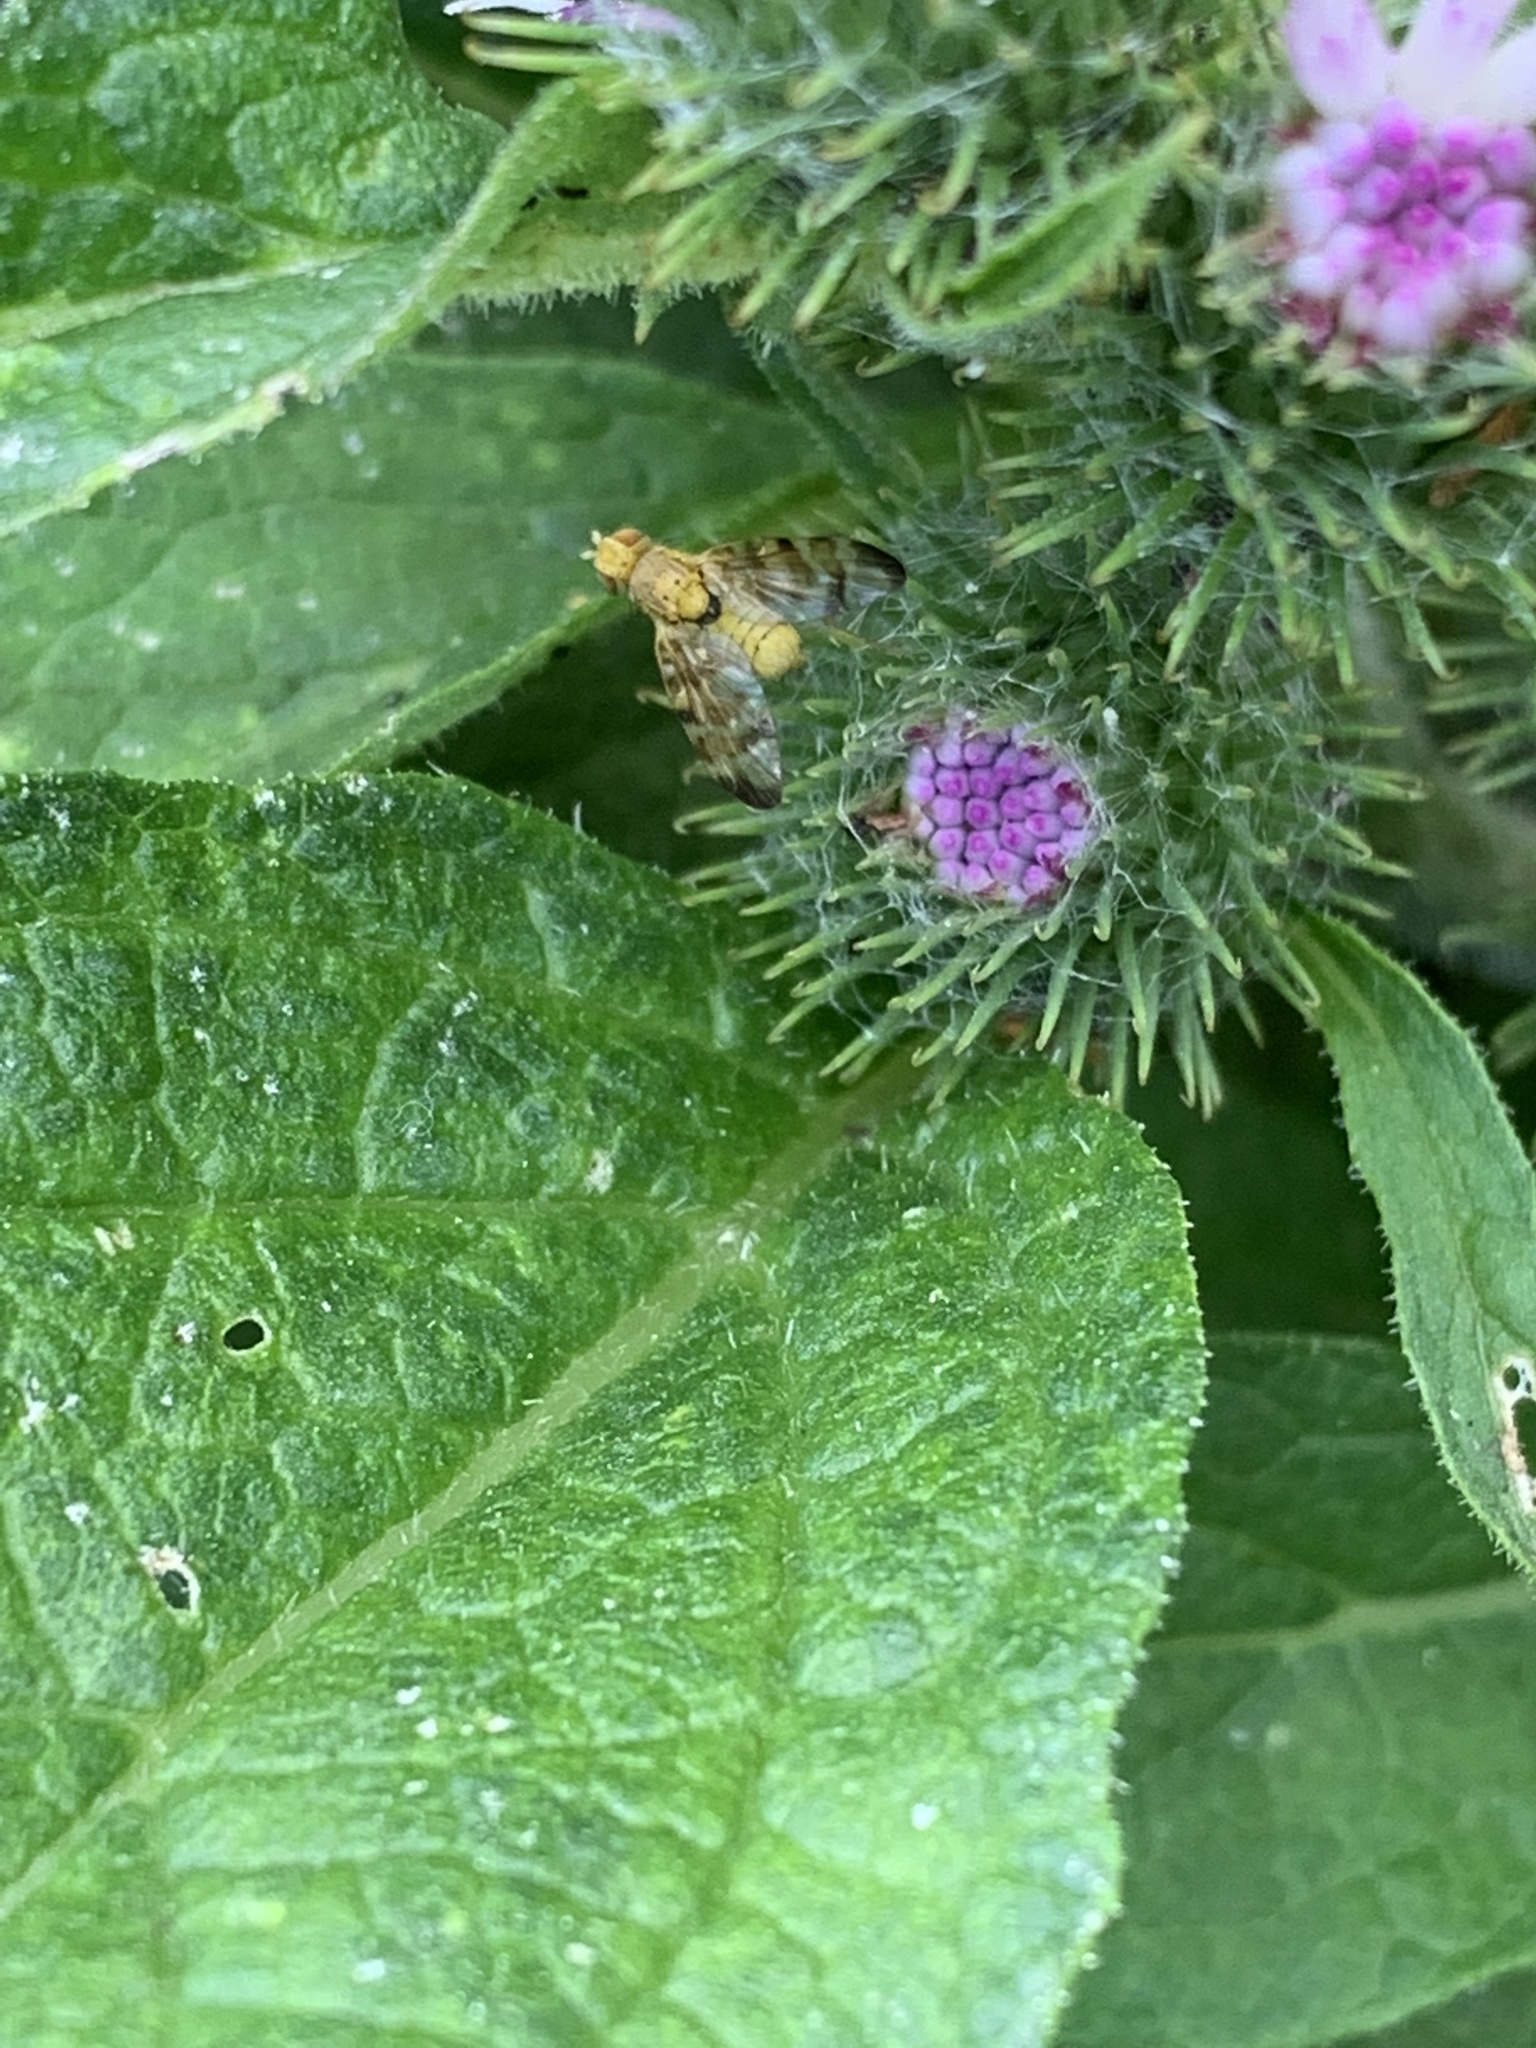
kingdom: Animalia
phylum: Arthropoda
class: Insecta
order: Diptera
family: Tephritidae
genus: Terellia
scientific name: Terellia tussilaginis
